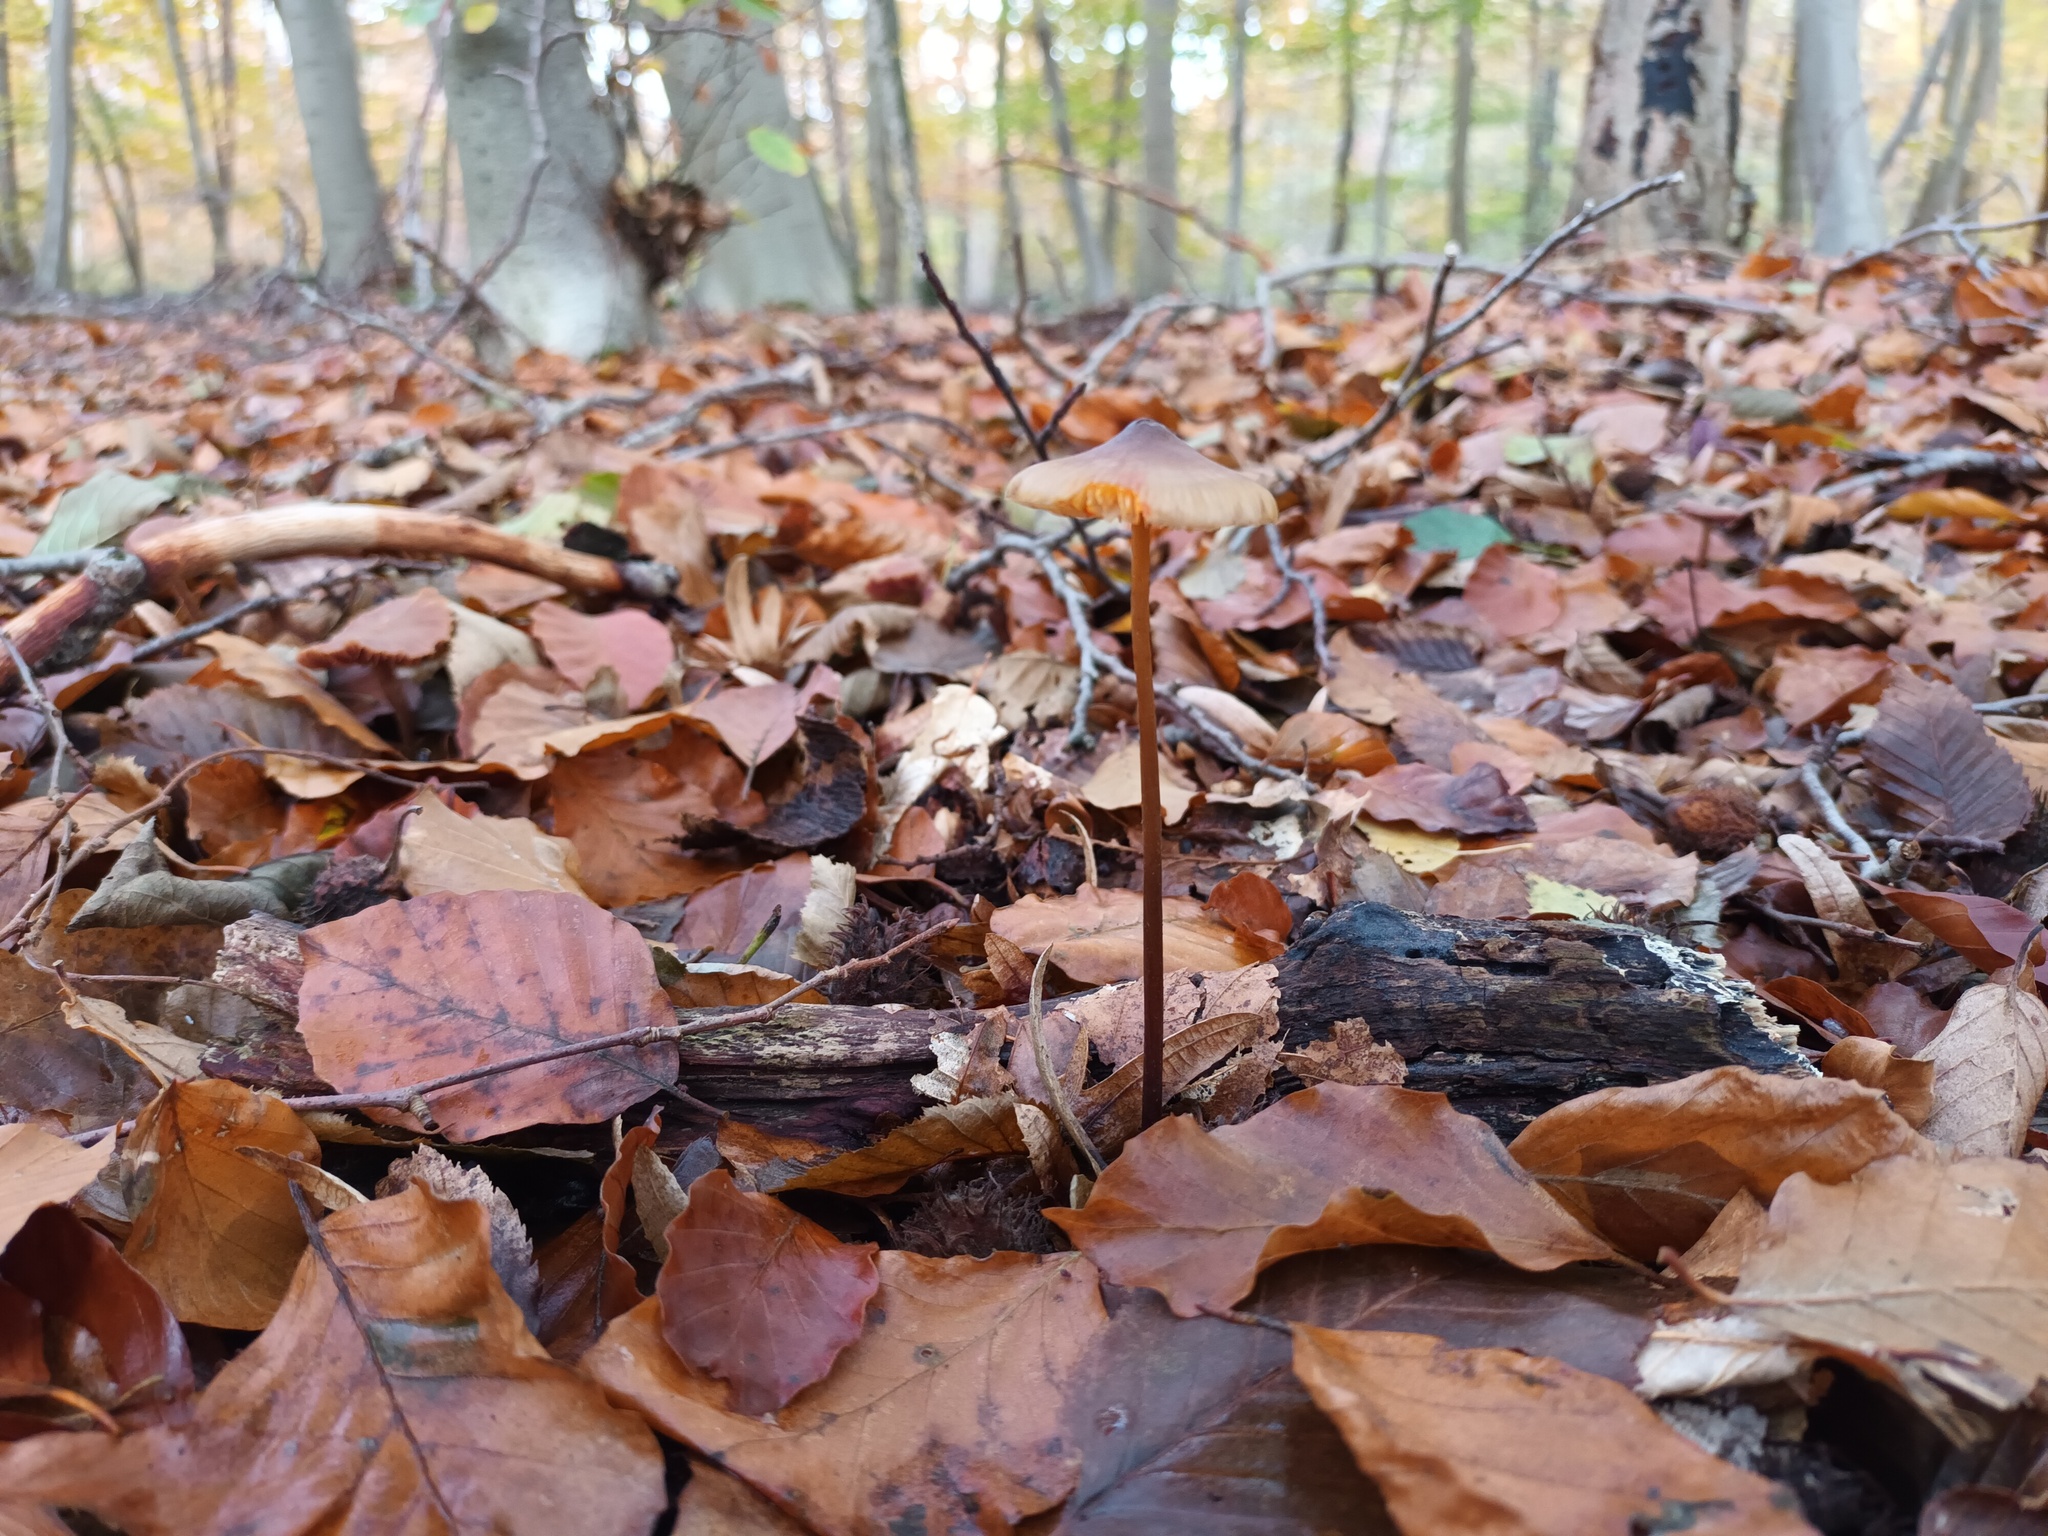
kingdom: Fungi
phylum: Basidiomycota
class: Agaricomycetes
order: Agaricales
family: Mycenaceae
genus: Mycena
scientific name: Mycena crocata
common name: Saffrondrop bonnet
